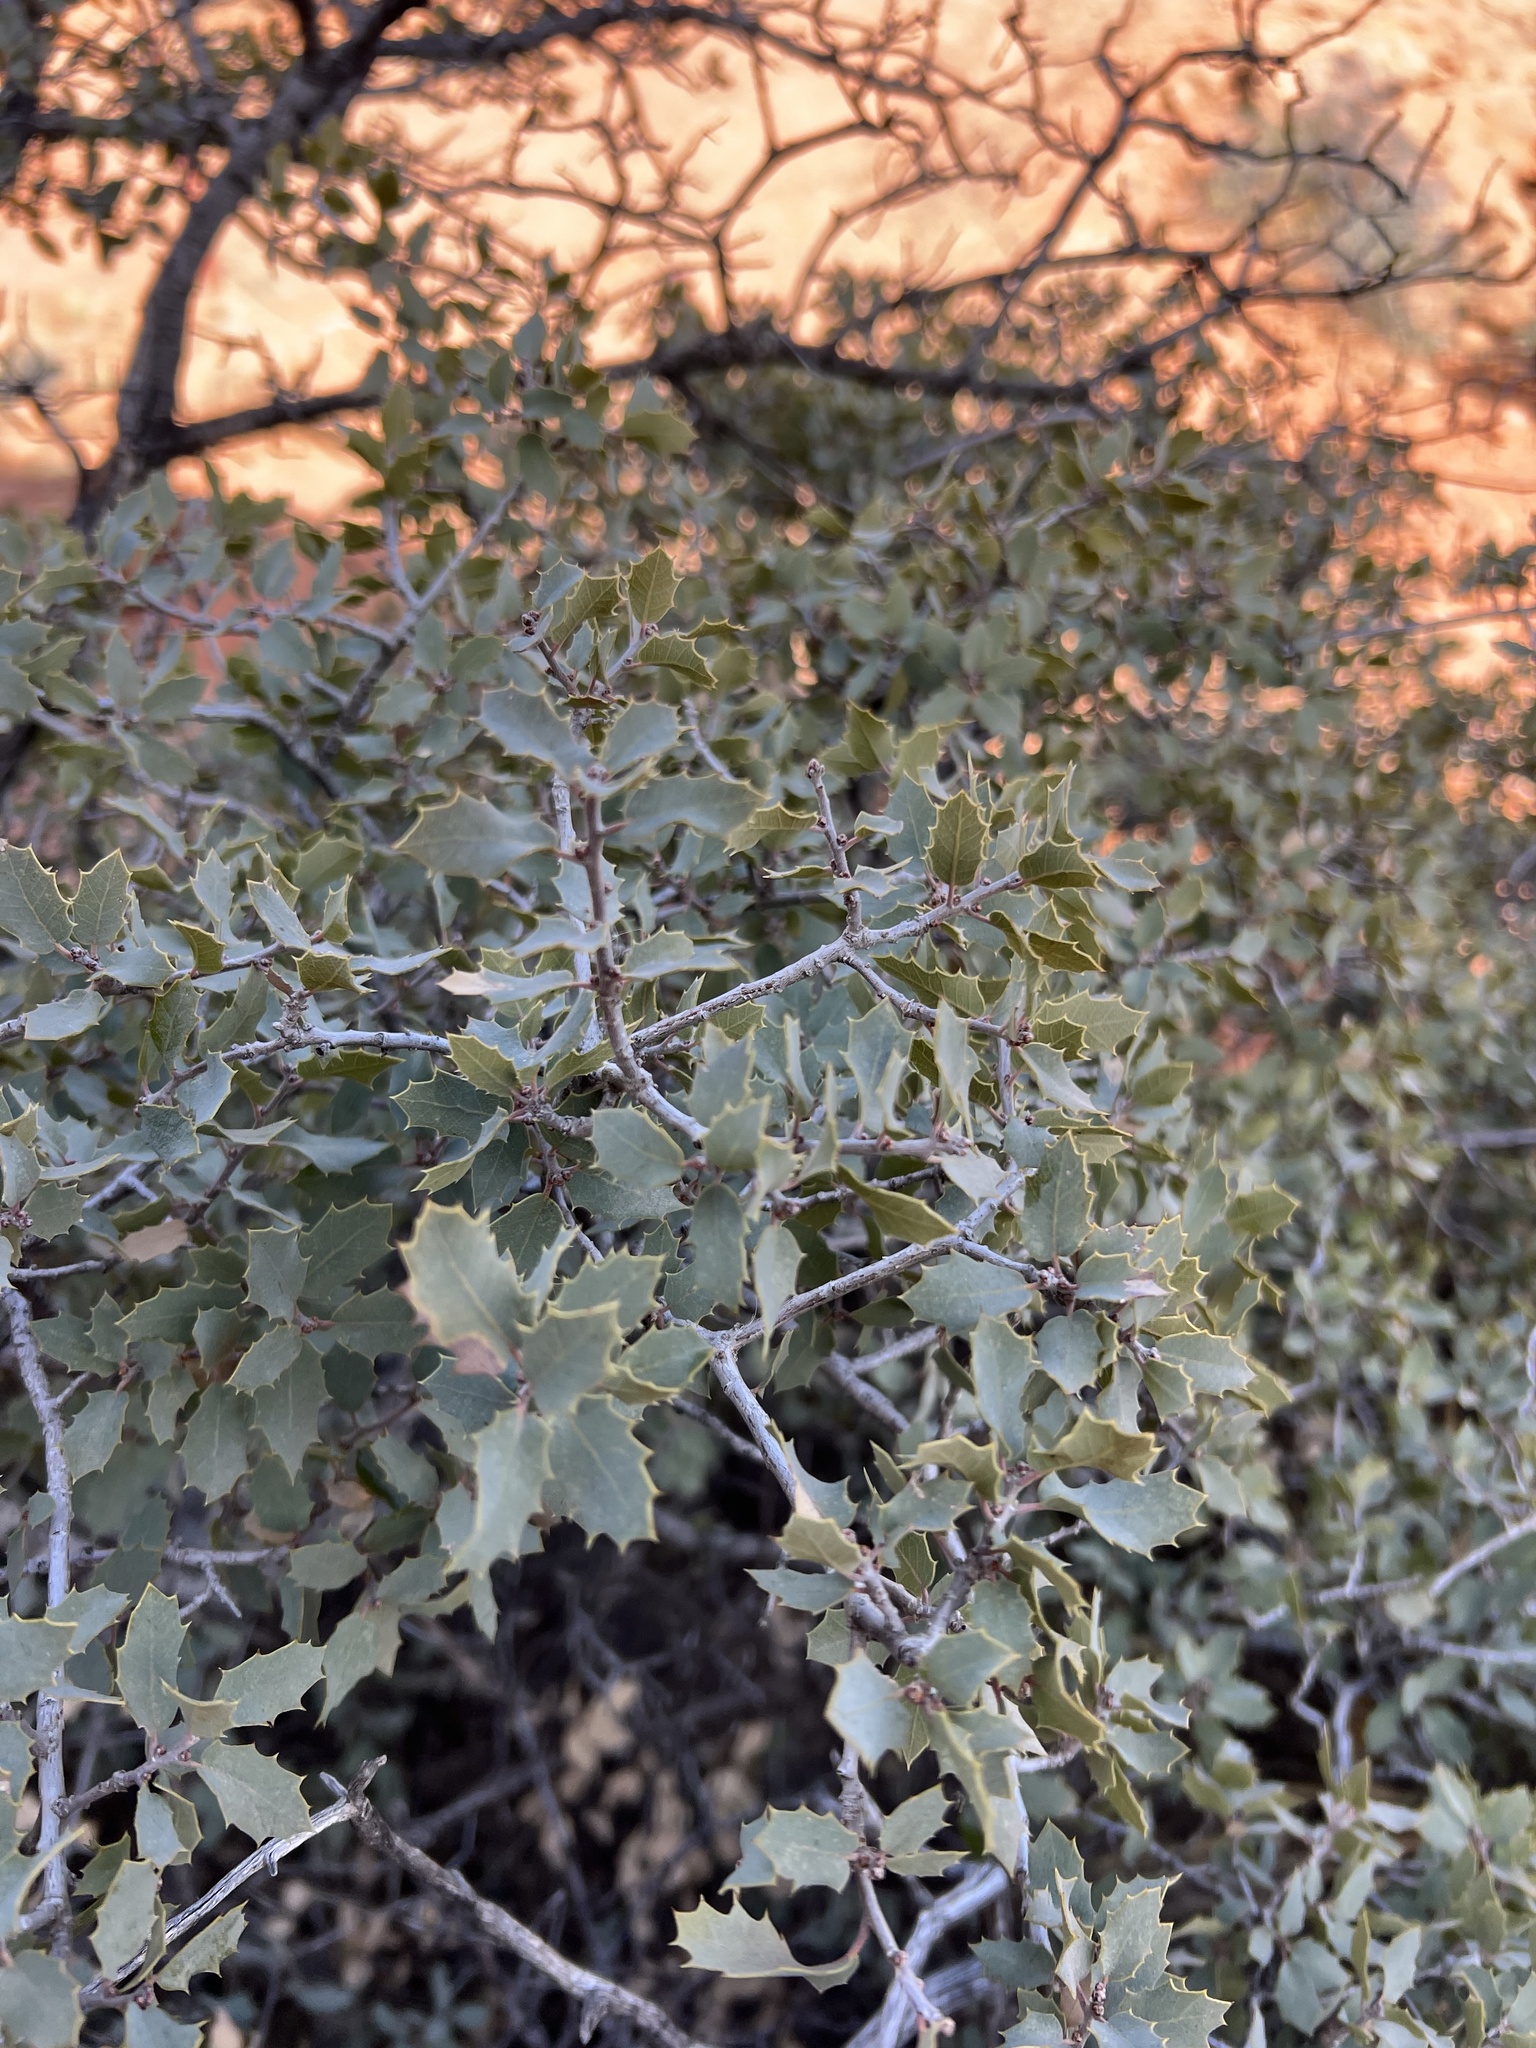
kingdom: Plantae
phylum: Tracheophyta
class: Magnoliopsida
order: Fagales
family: Fagaceae
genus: Quercus
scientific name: Quercus turbinella
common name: Sonoran scrub oak
